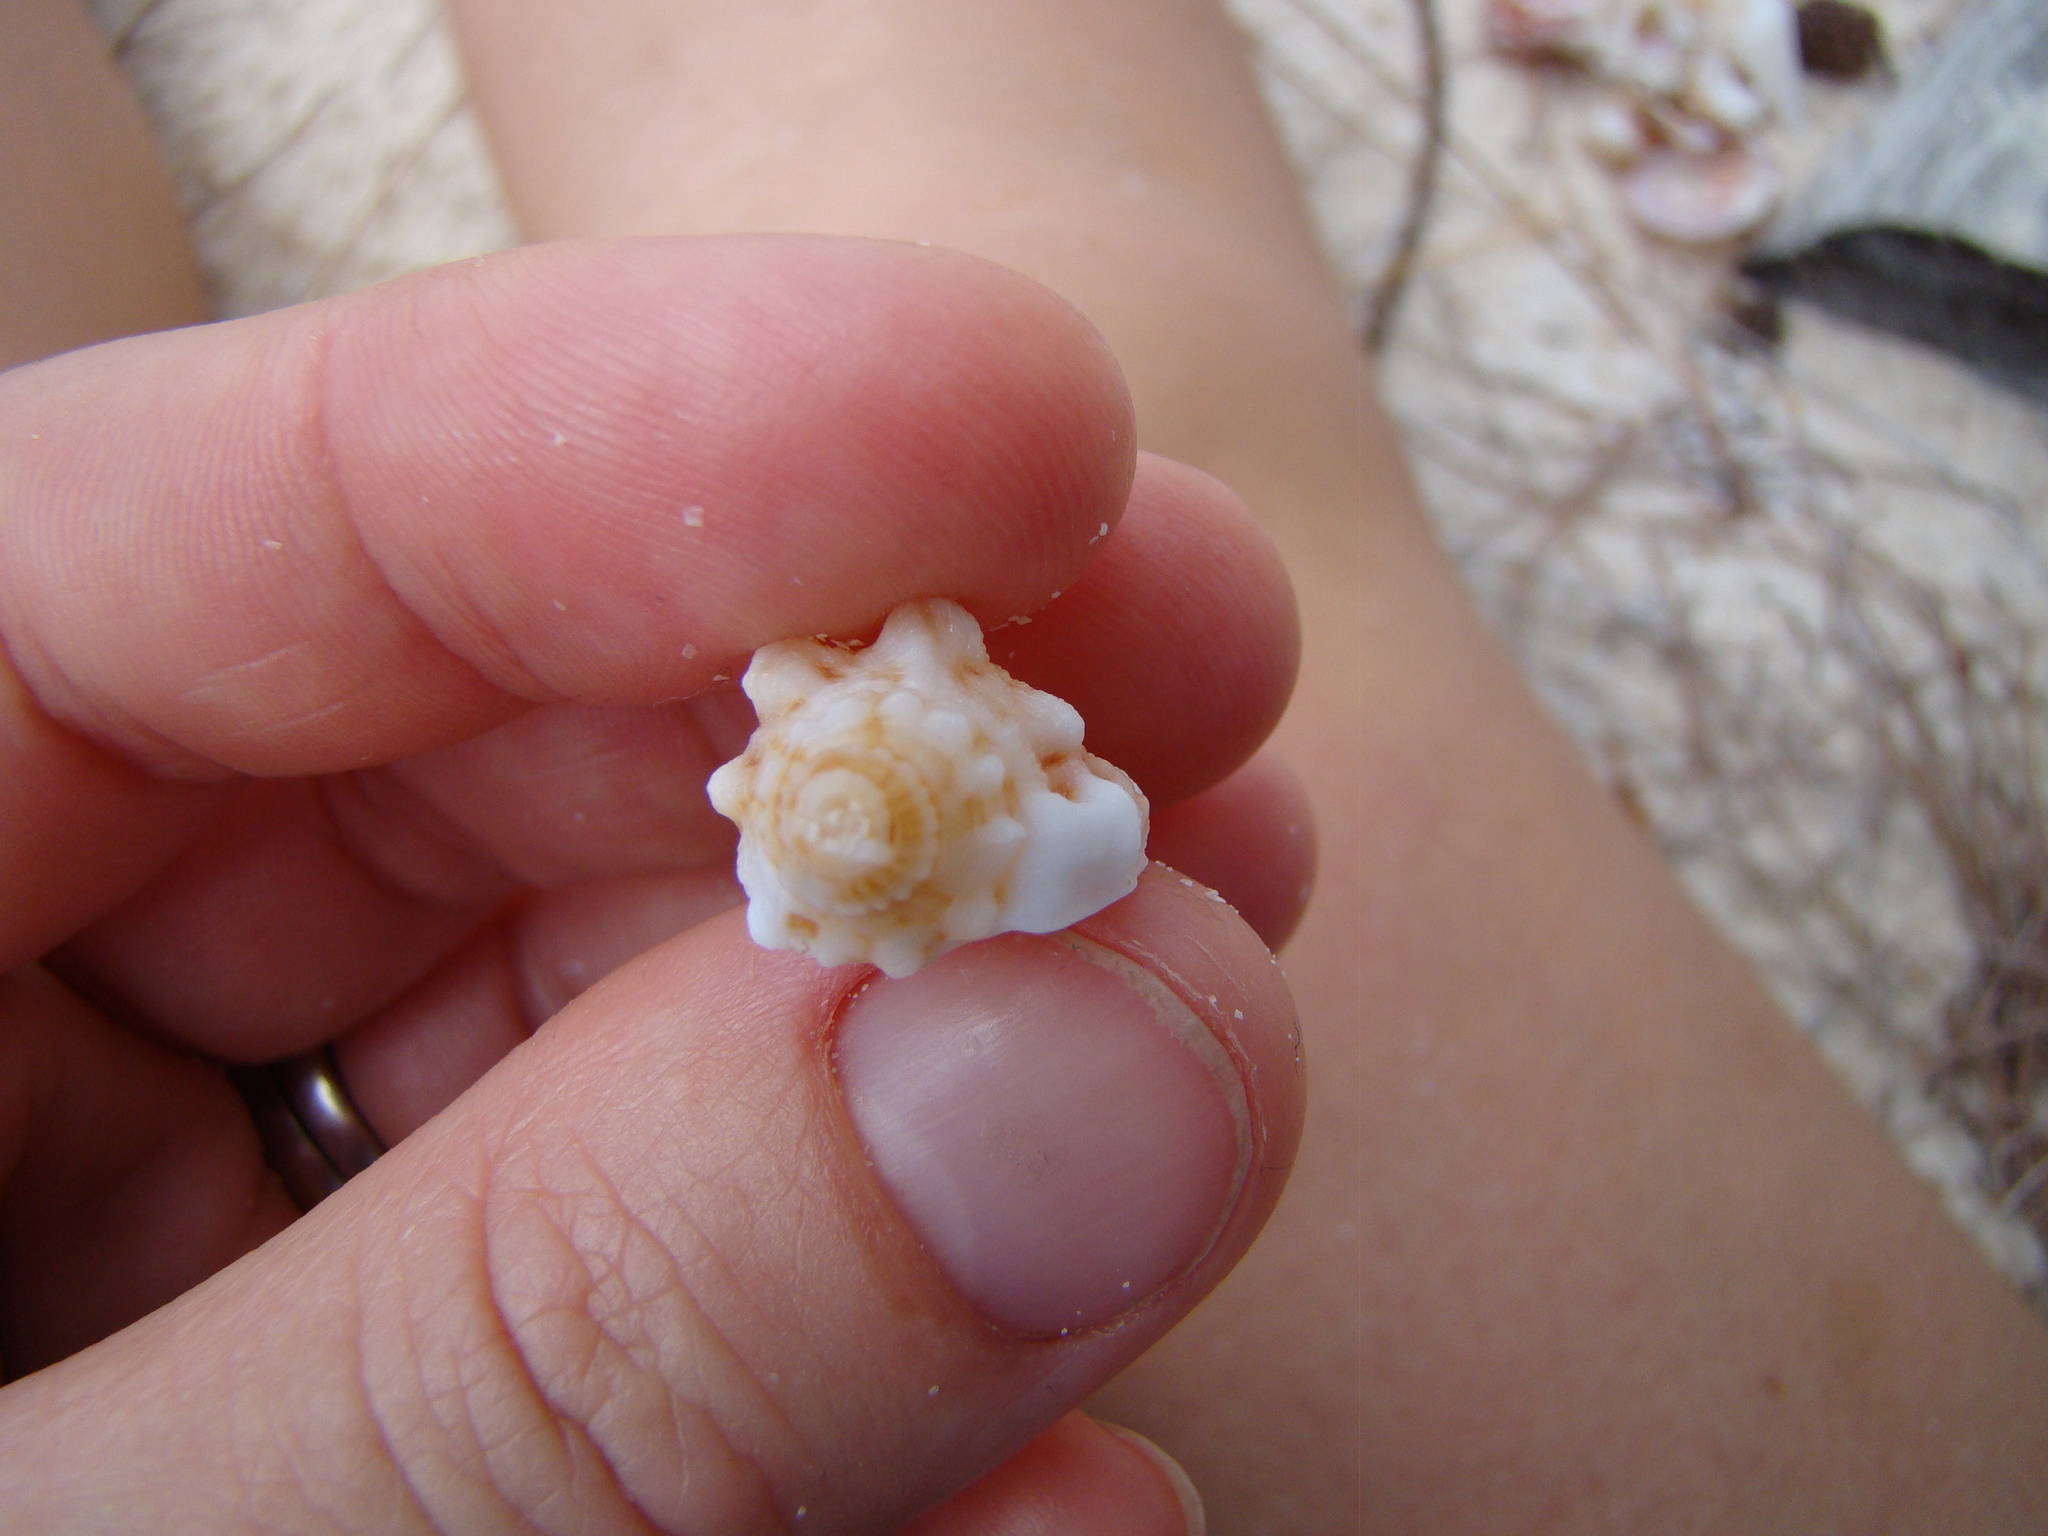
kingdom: Animalia
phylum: Mollusca
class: Gastropoda
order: Littorinimorpha
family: Cymatiidae
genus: Gutturnium
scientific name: Gutturnium muricinum
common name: Knobbed triton
